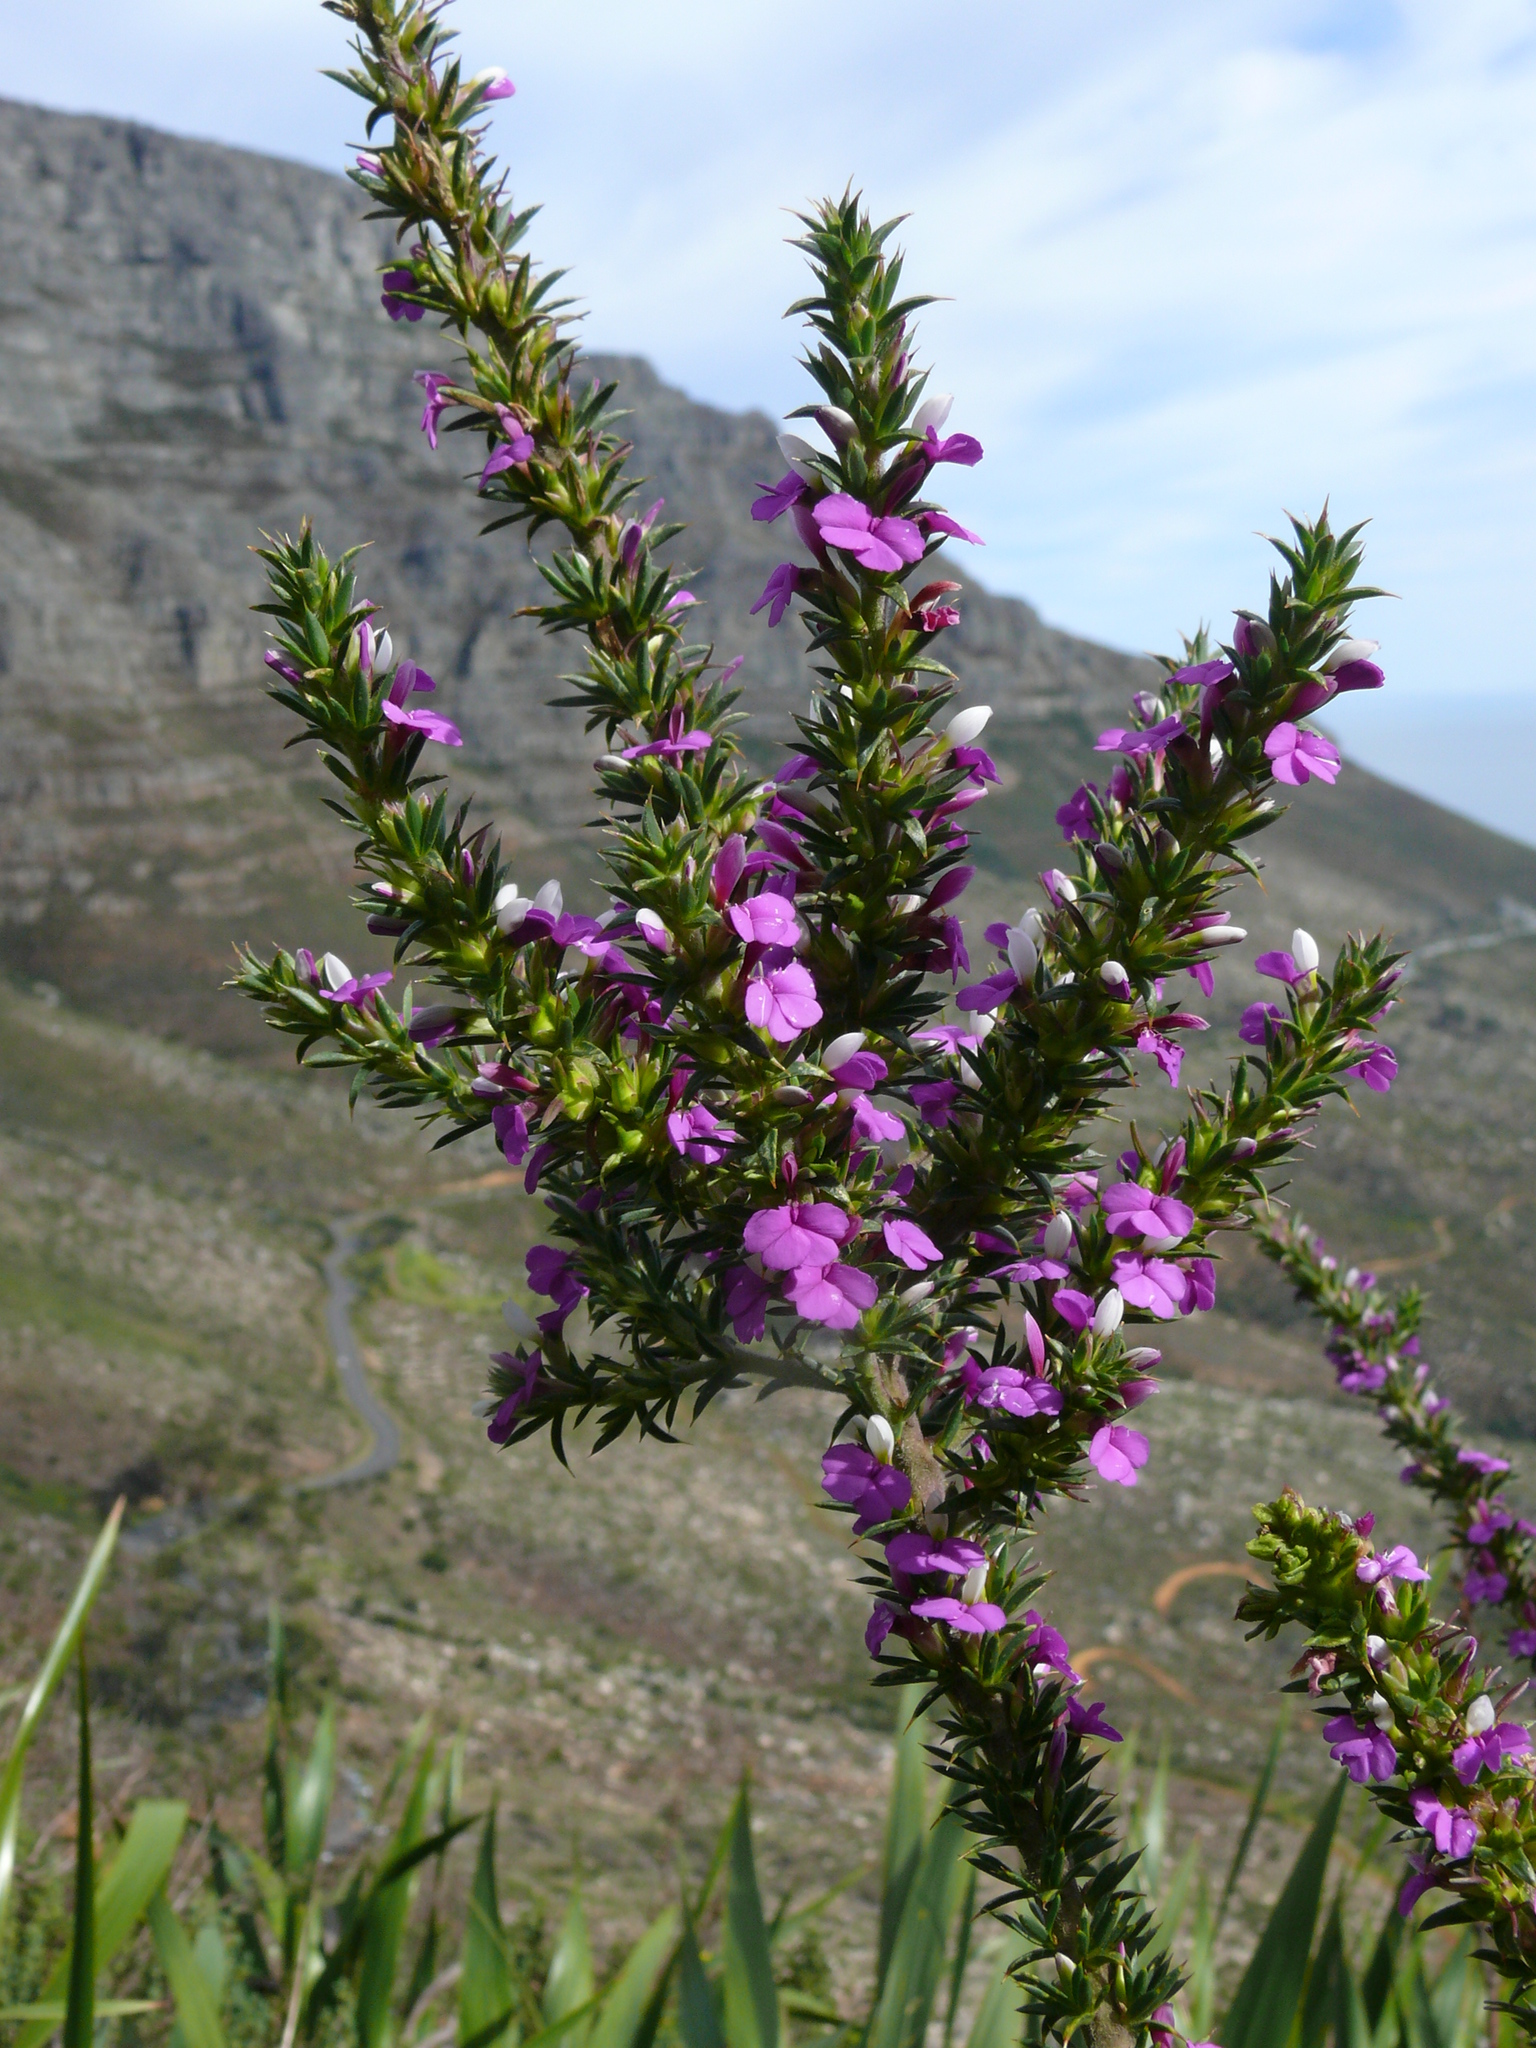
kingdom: Plantae
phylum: Tracheophyta
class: Magnoliopsida
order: Fabales
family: Polygalaceae
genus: Muraltia
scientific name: Muraltia heisteria
